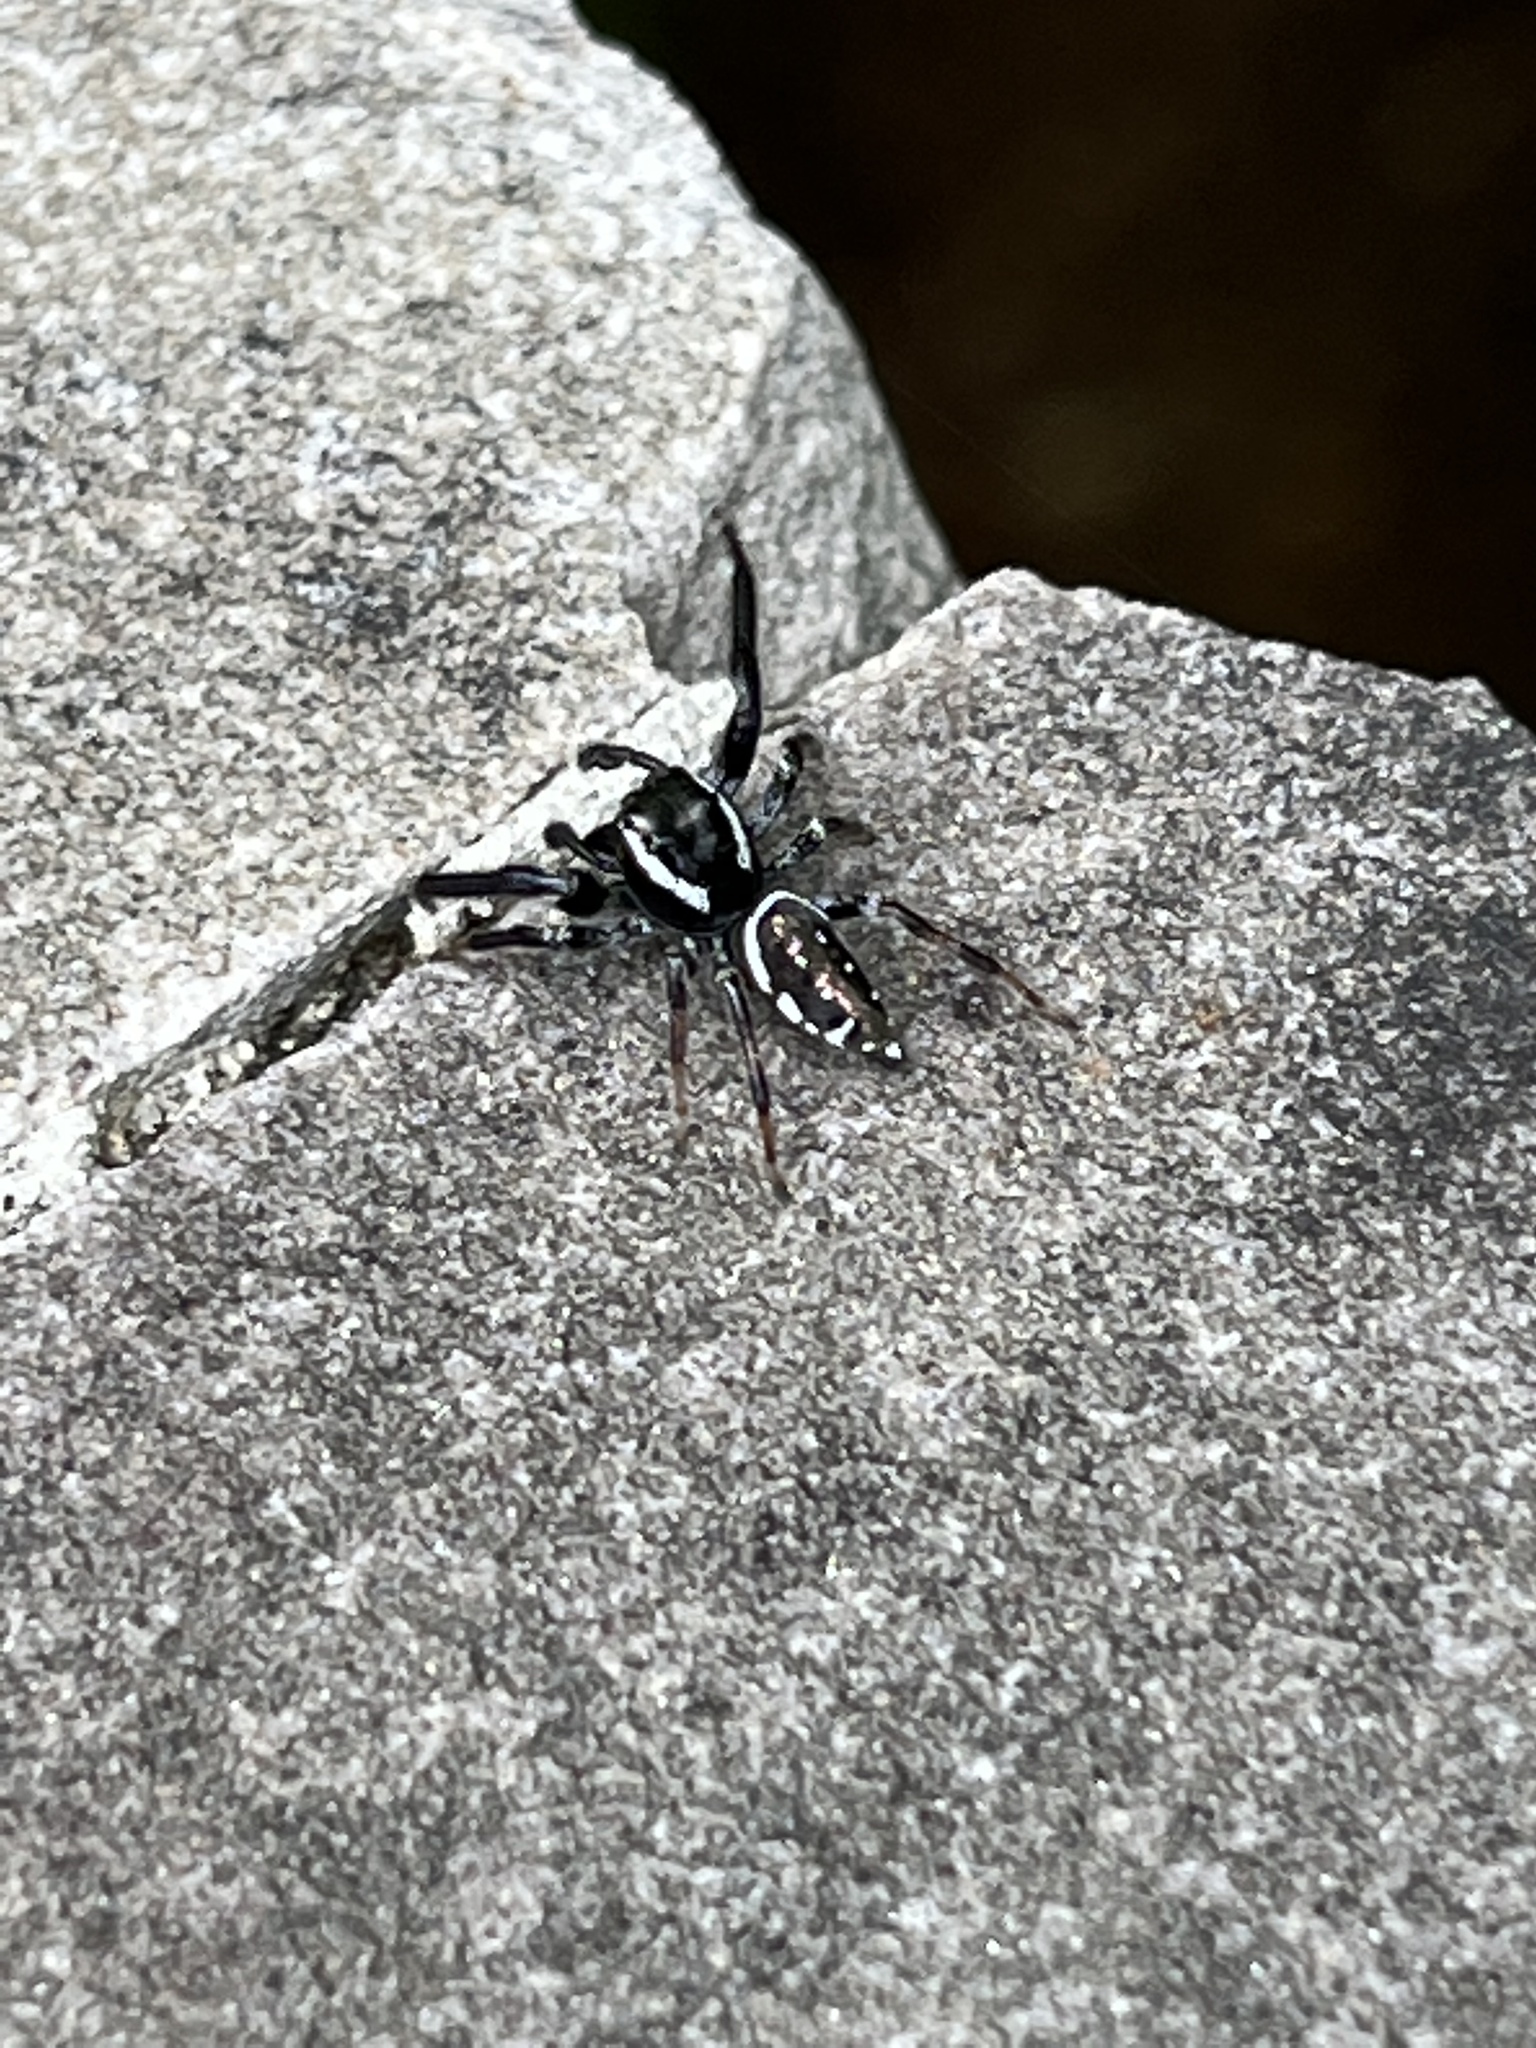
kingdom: Animalia
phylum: Arthropoda
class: Arachnida
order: Araneae
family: Salticidae
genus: Paraphidippus
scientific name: Paraphidippus aurantius
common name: Jumping spiders
